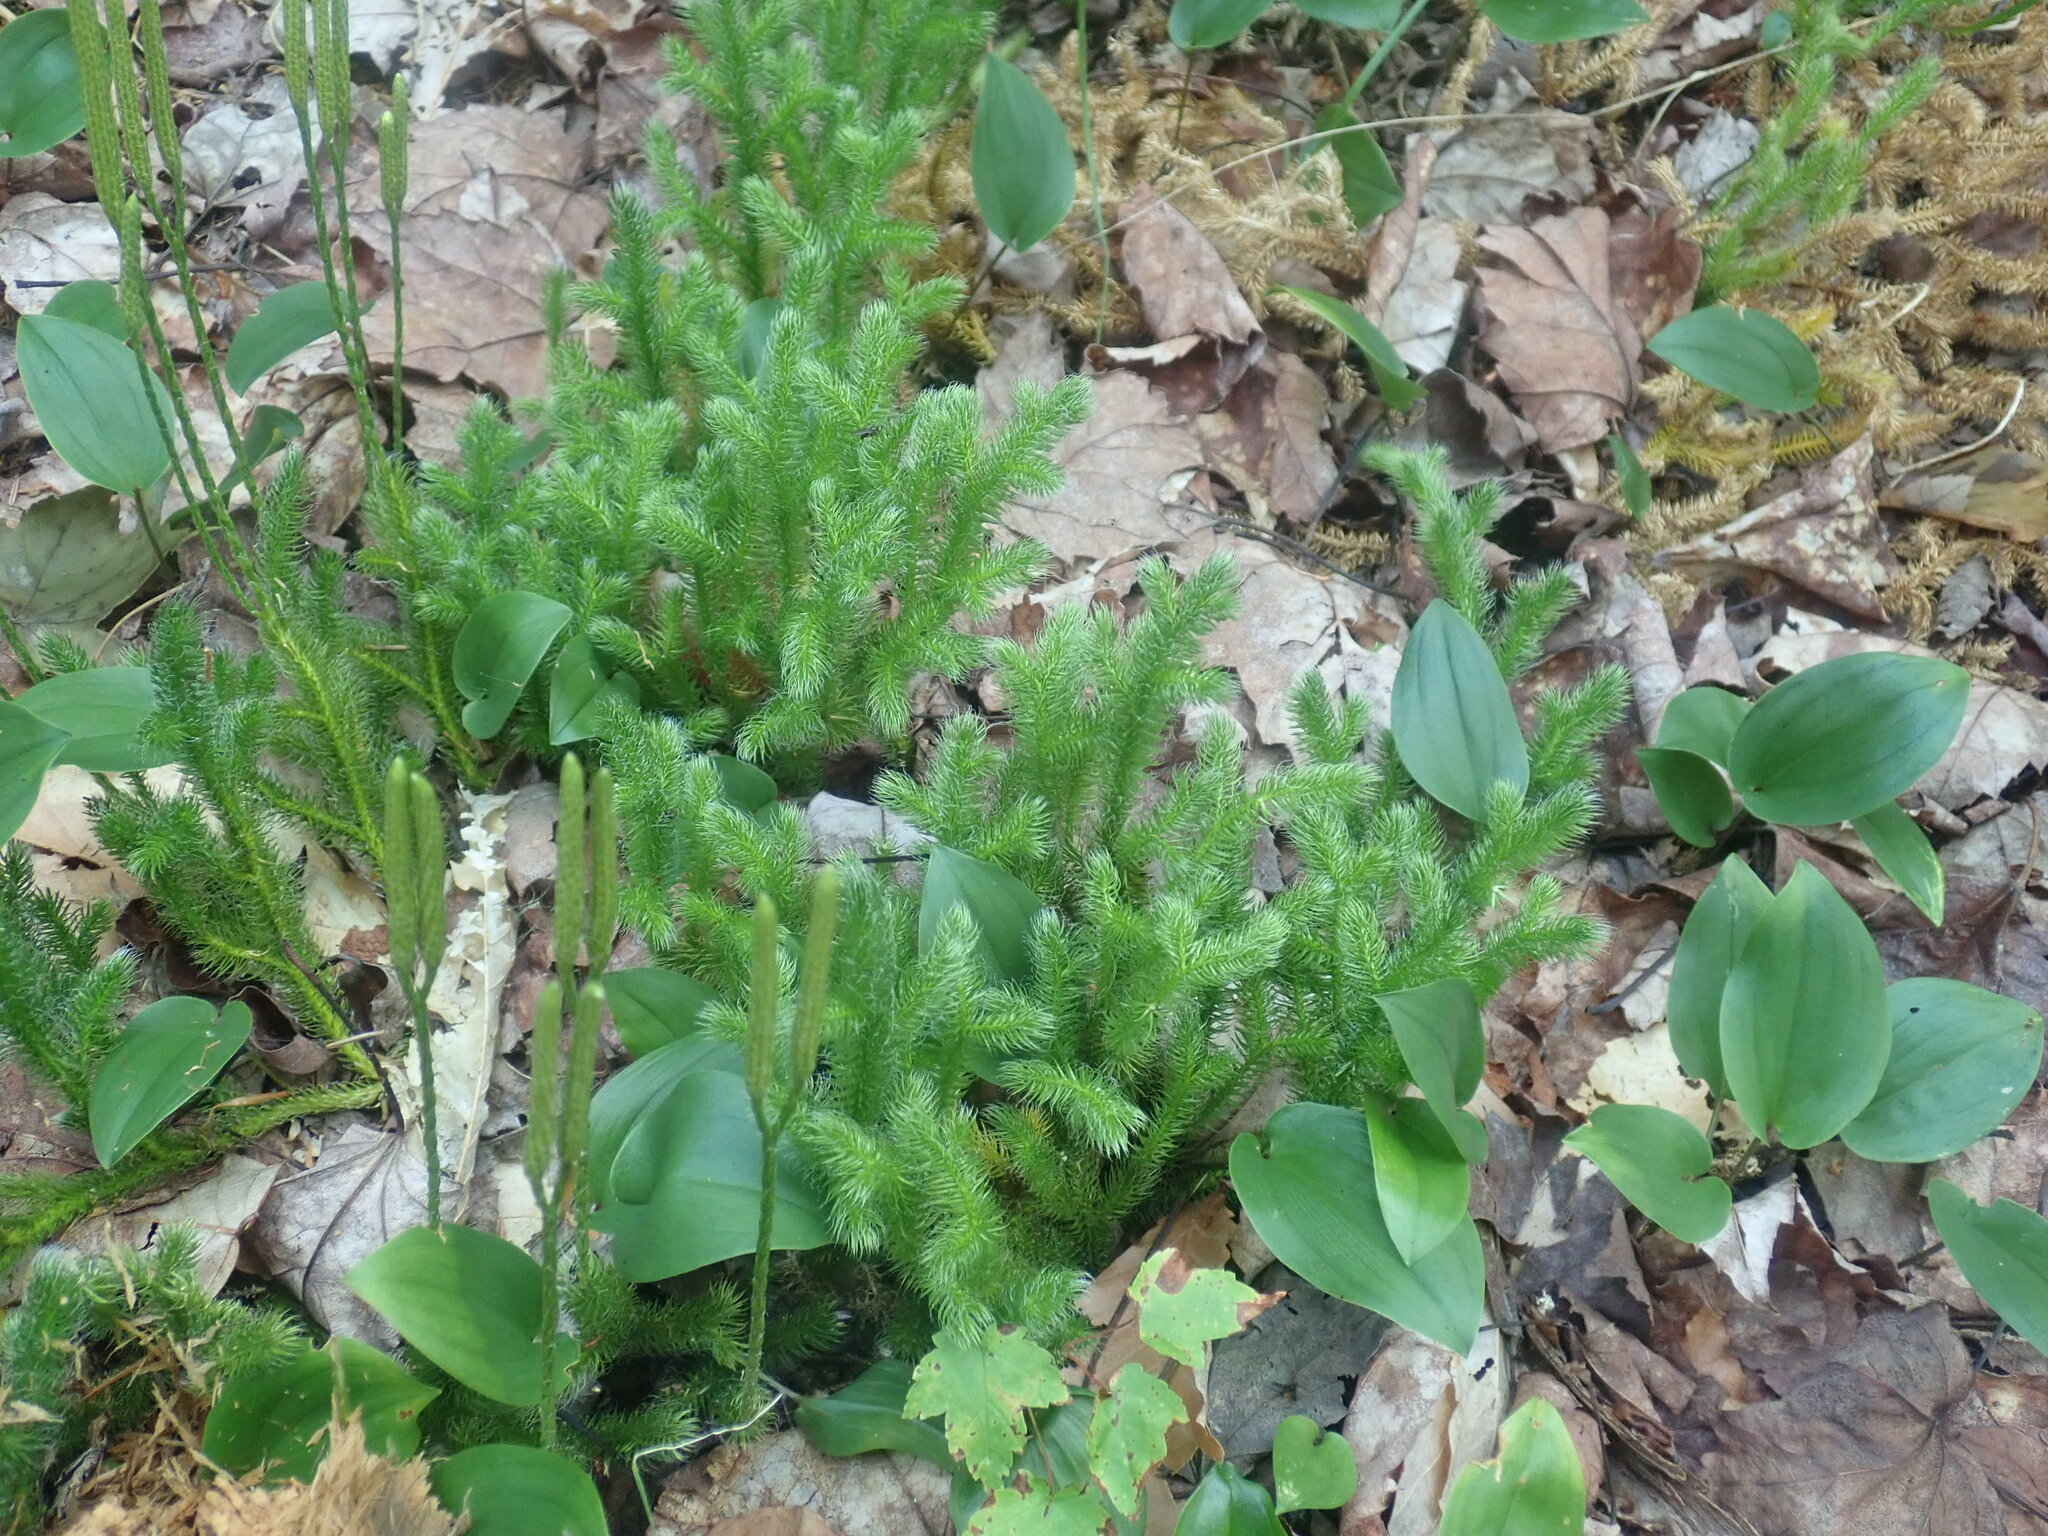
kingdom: Plantae
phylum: Tracheophyta
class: Lycopodiopsida
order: Lycopodiales
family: Lycopodiaceae
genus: Lycopodium
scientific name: Lycopodium clavatum
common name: Stag's-horn clubmoss
